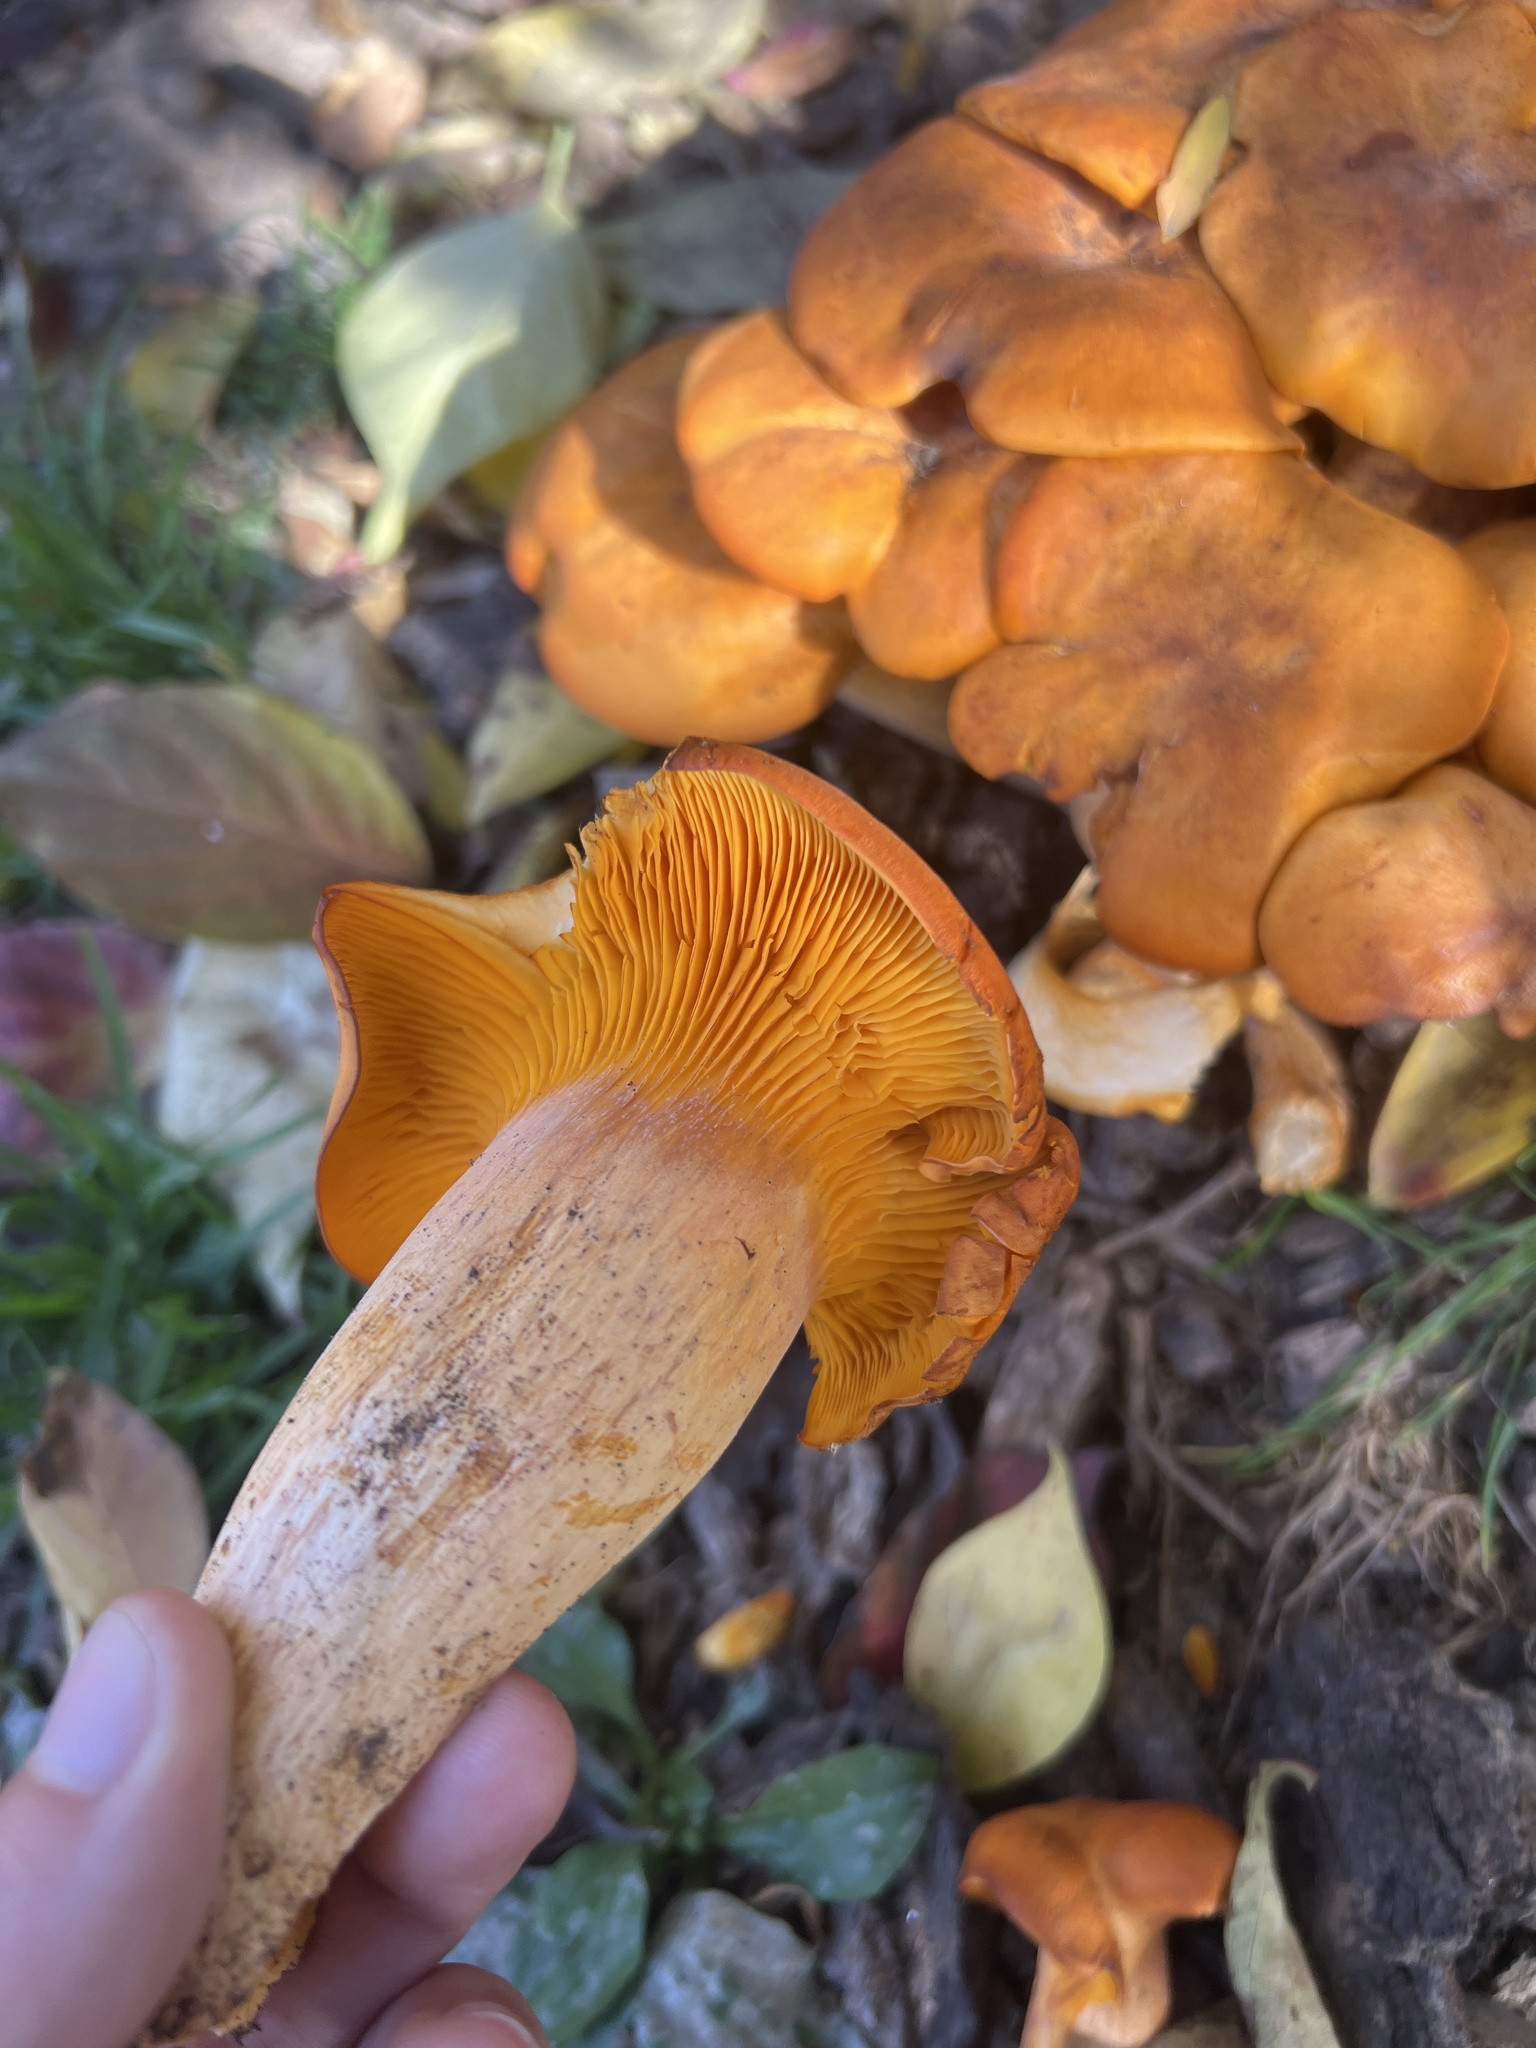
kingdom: Fungi
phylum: Basidiomycota
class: Agaricomycetes
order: Agaricales
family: Omphalotaceae
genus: Omphalotus
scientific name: Omphalotus illudens
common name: Jack o lantern
